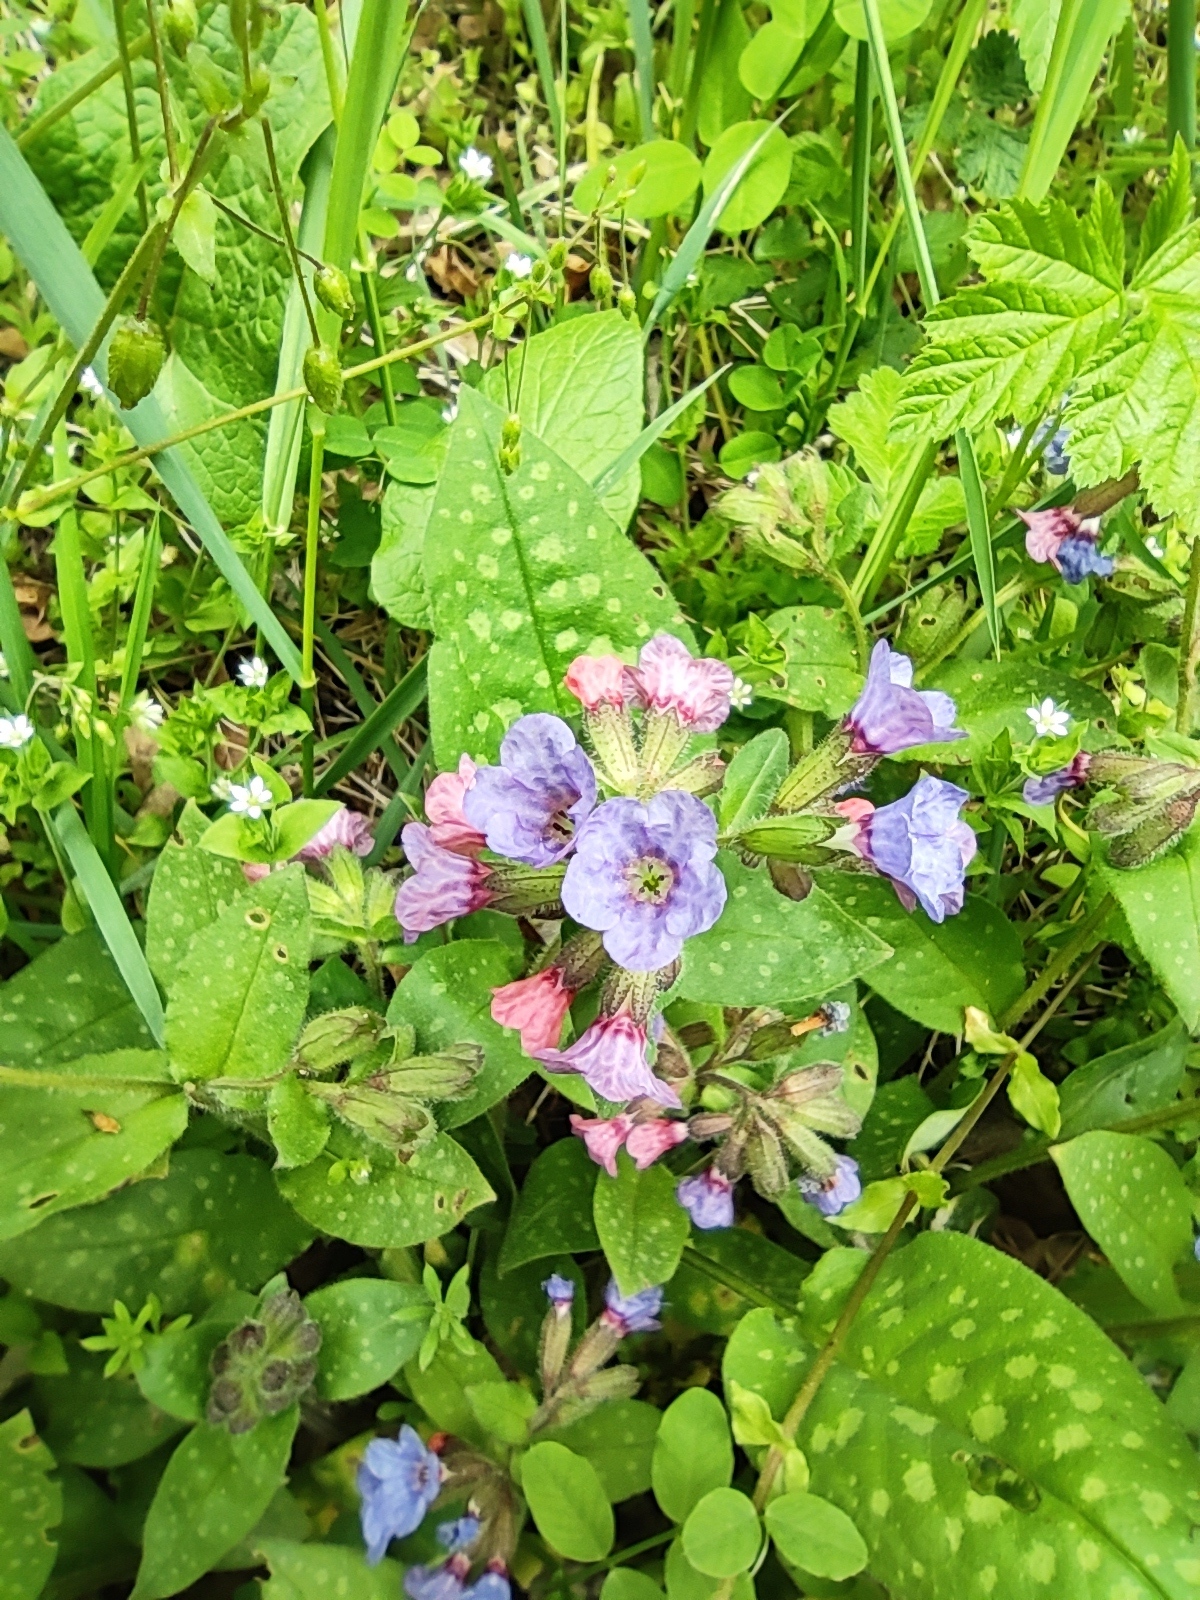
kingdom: Plantae
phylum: Tracheophyta
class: Magnoliopsida
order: Boraginales
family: Boraginaceae
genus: Pulmonaria
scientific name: Pulmonaria saccharata
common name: Bethlehem lungwort
